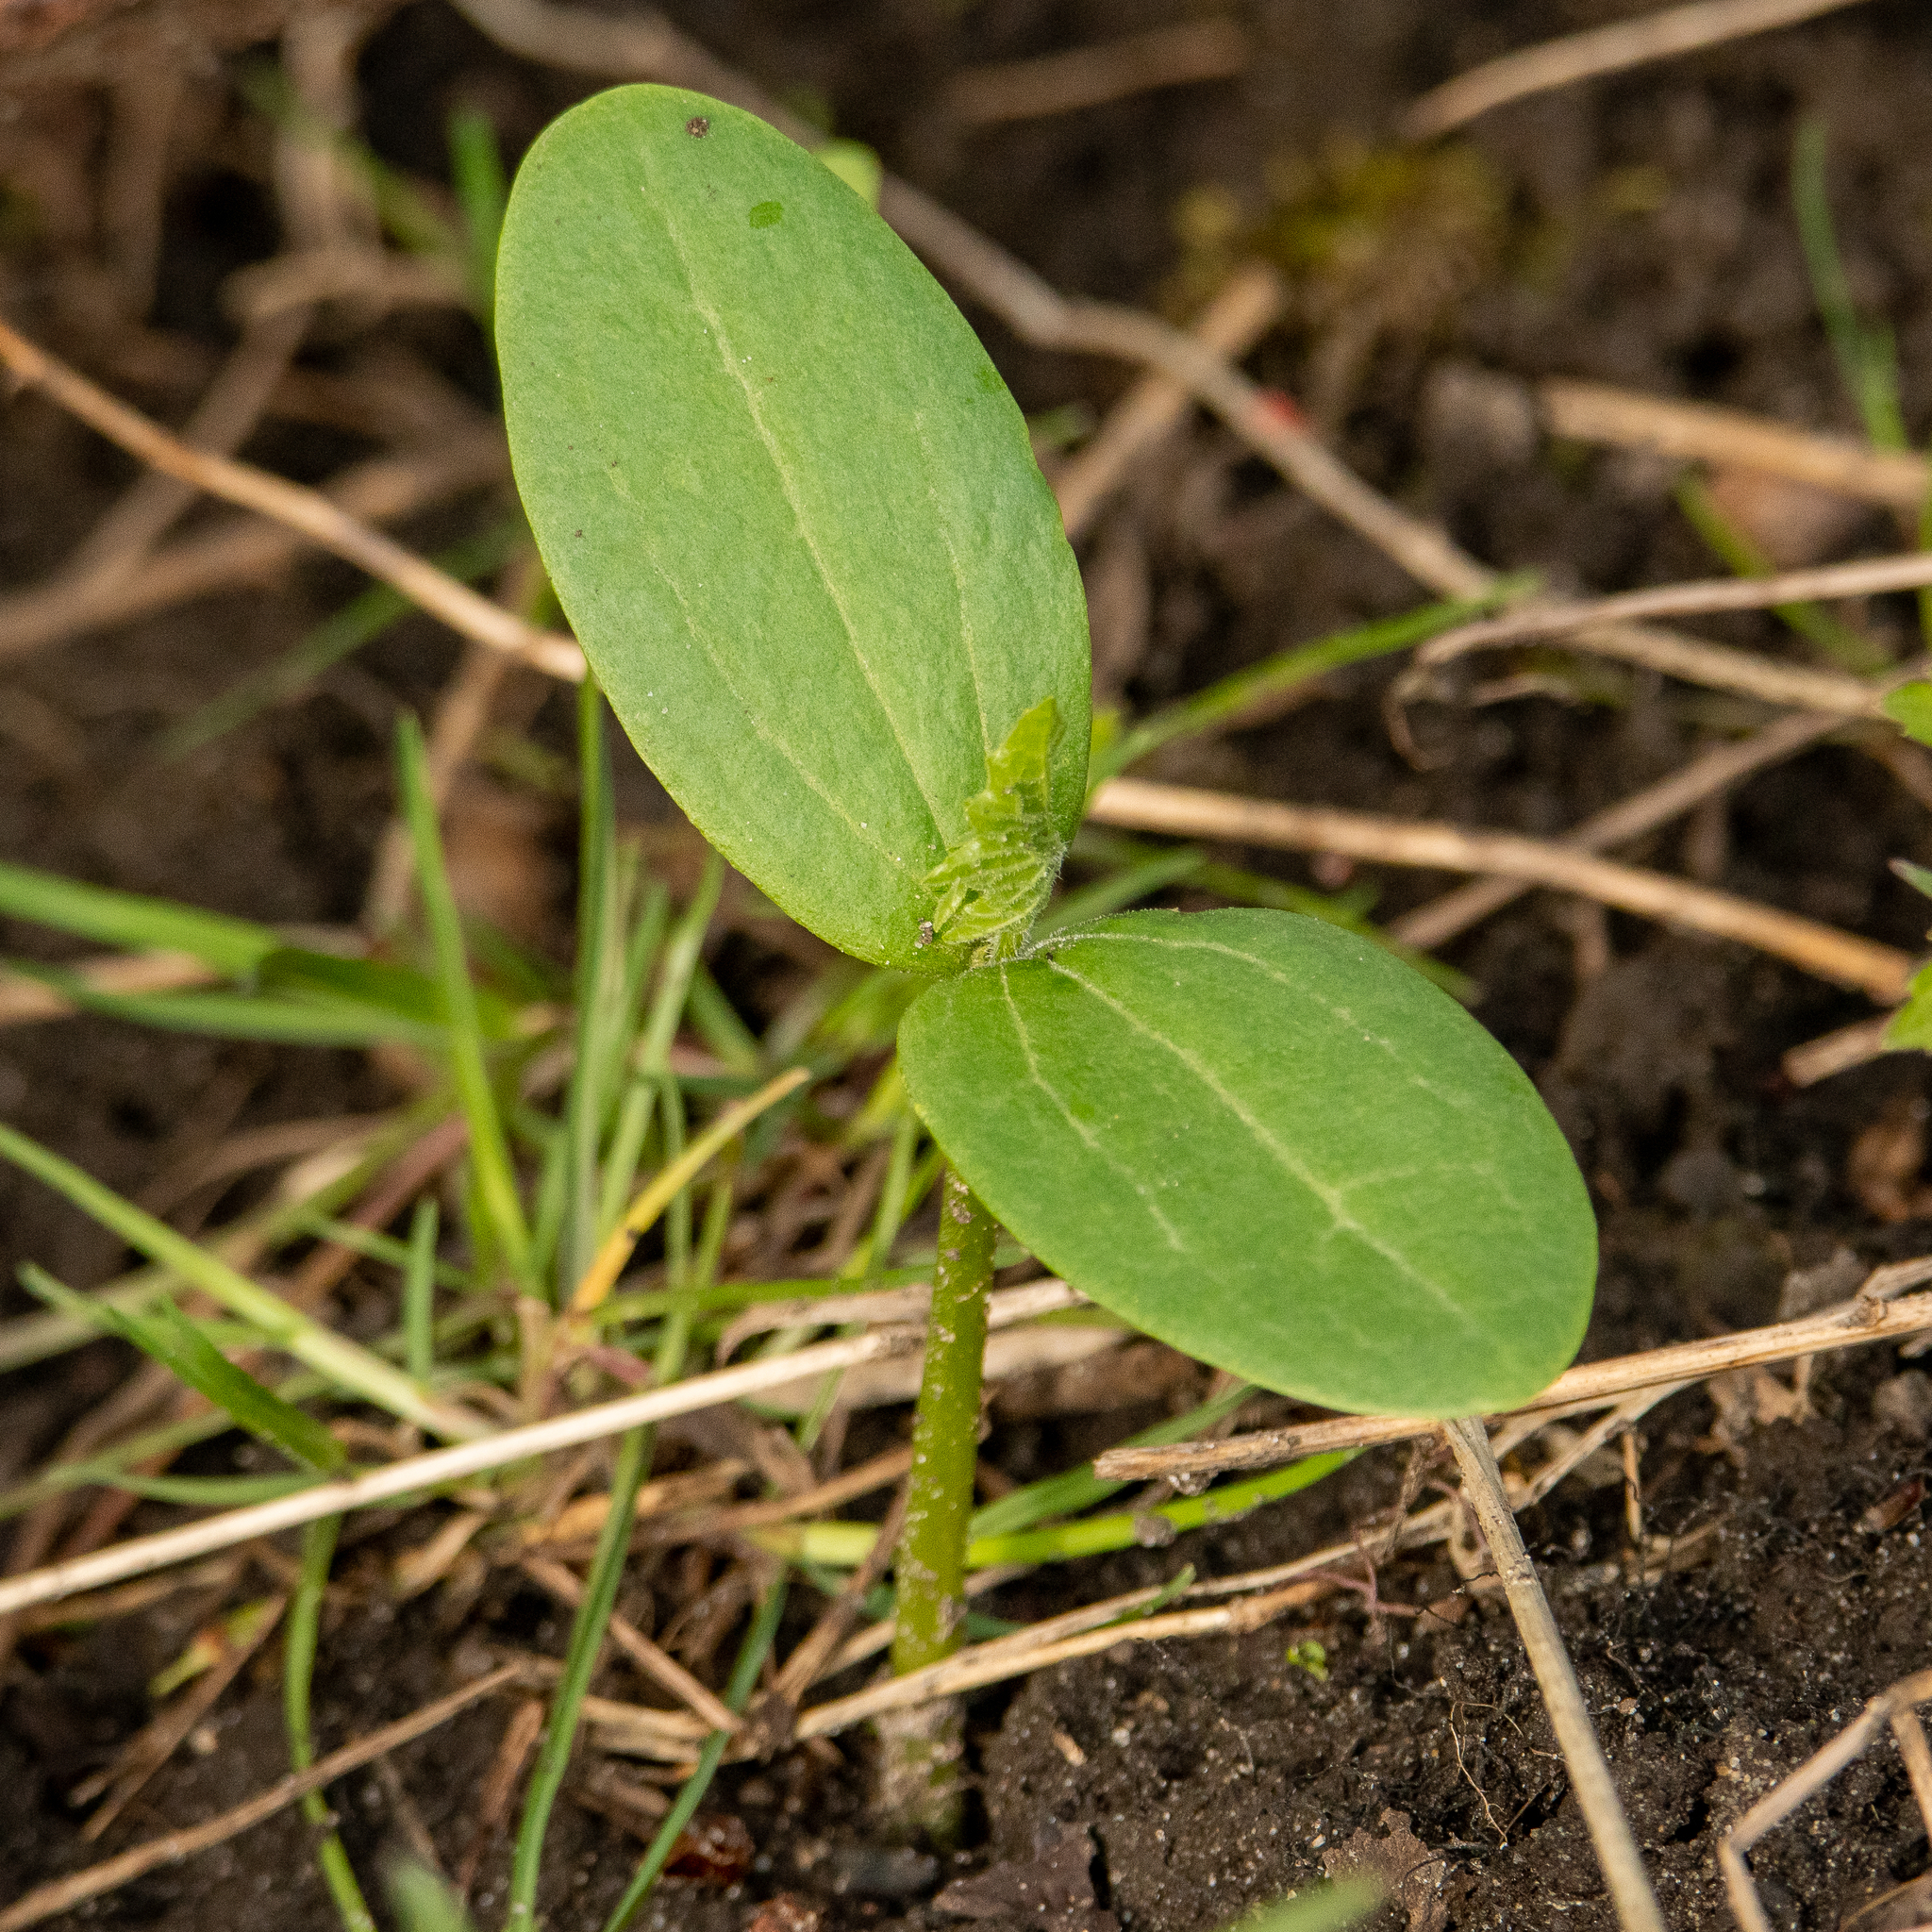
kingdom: Plantae
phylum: Tracheophyta
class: Magnoliopsida
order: Cucurbitales
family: Cucurbitaceae
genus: Echinocystis
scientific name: Echinocystis lobata
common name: Wild cucumber
